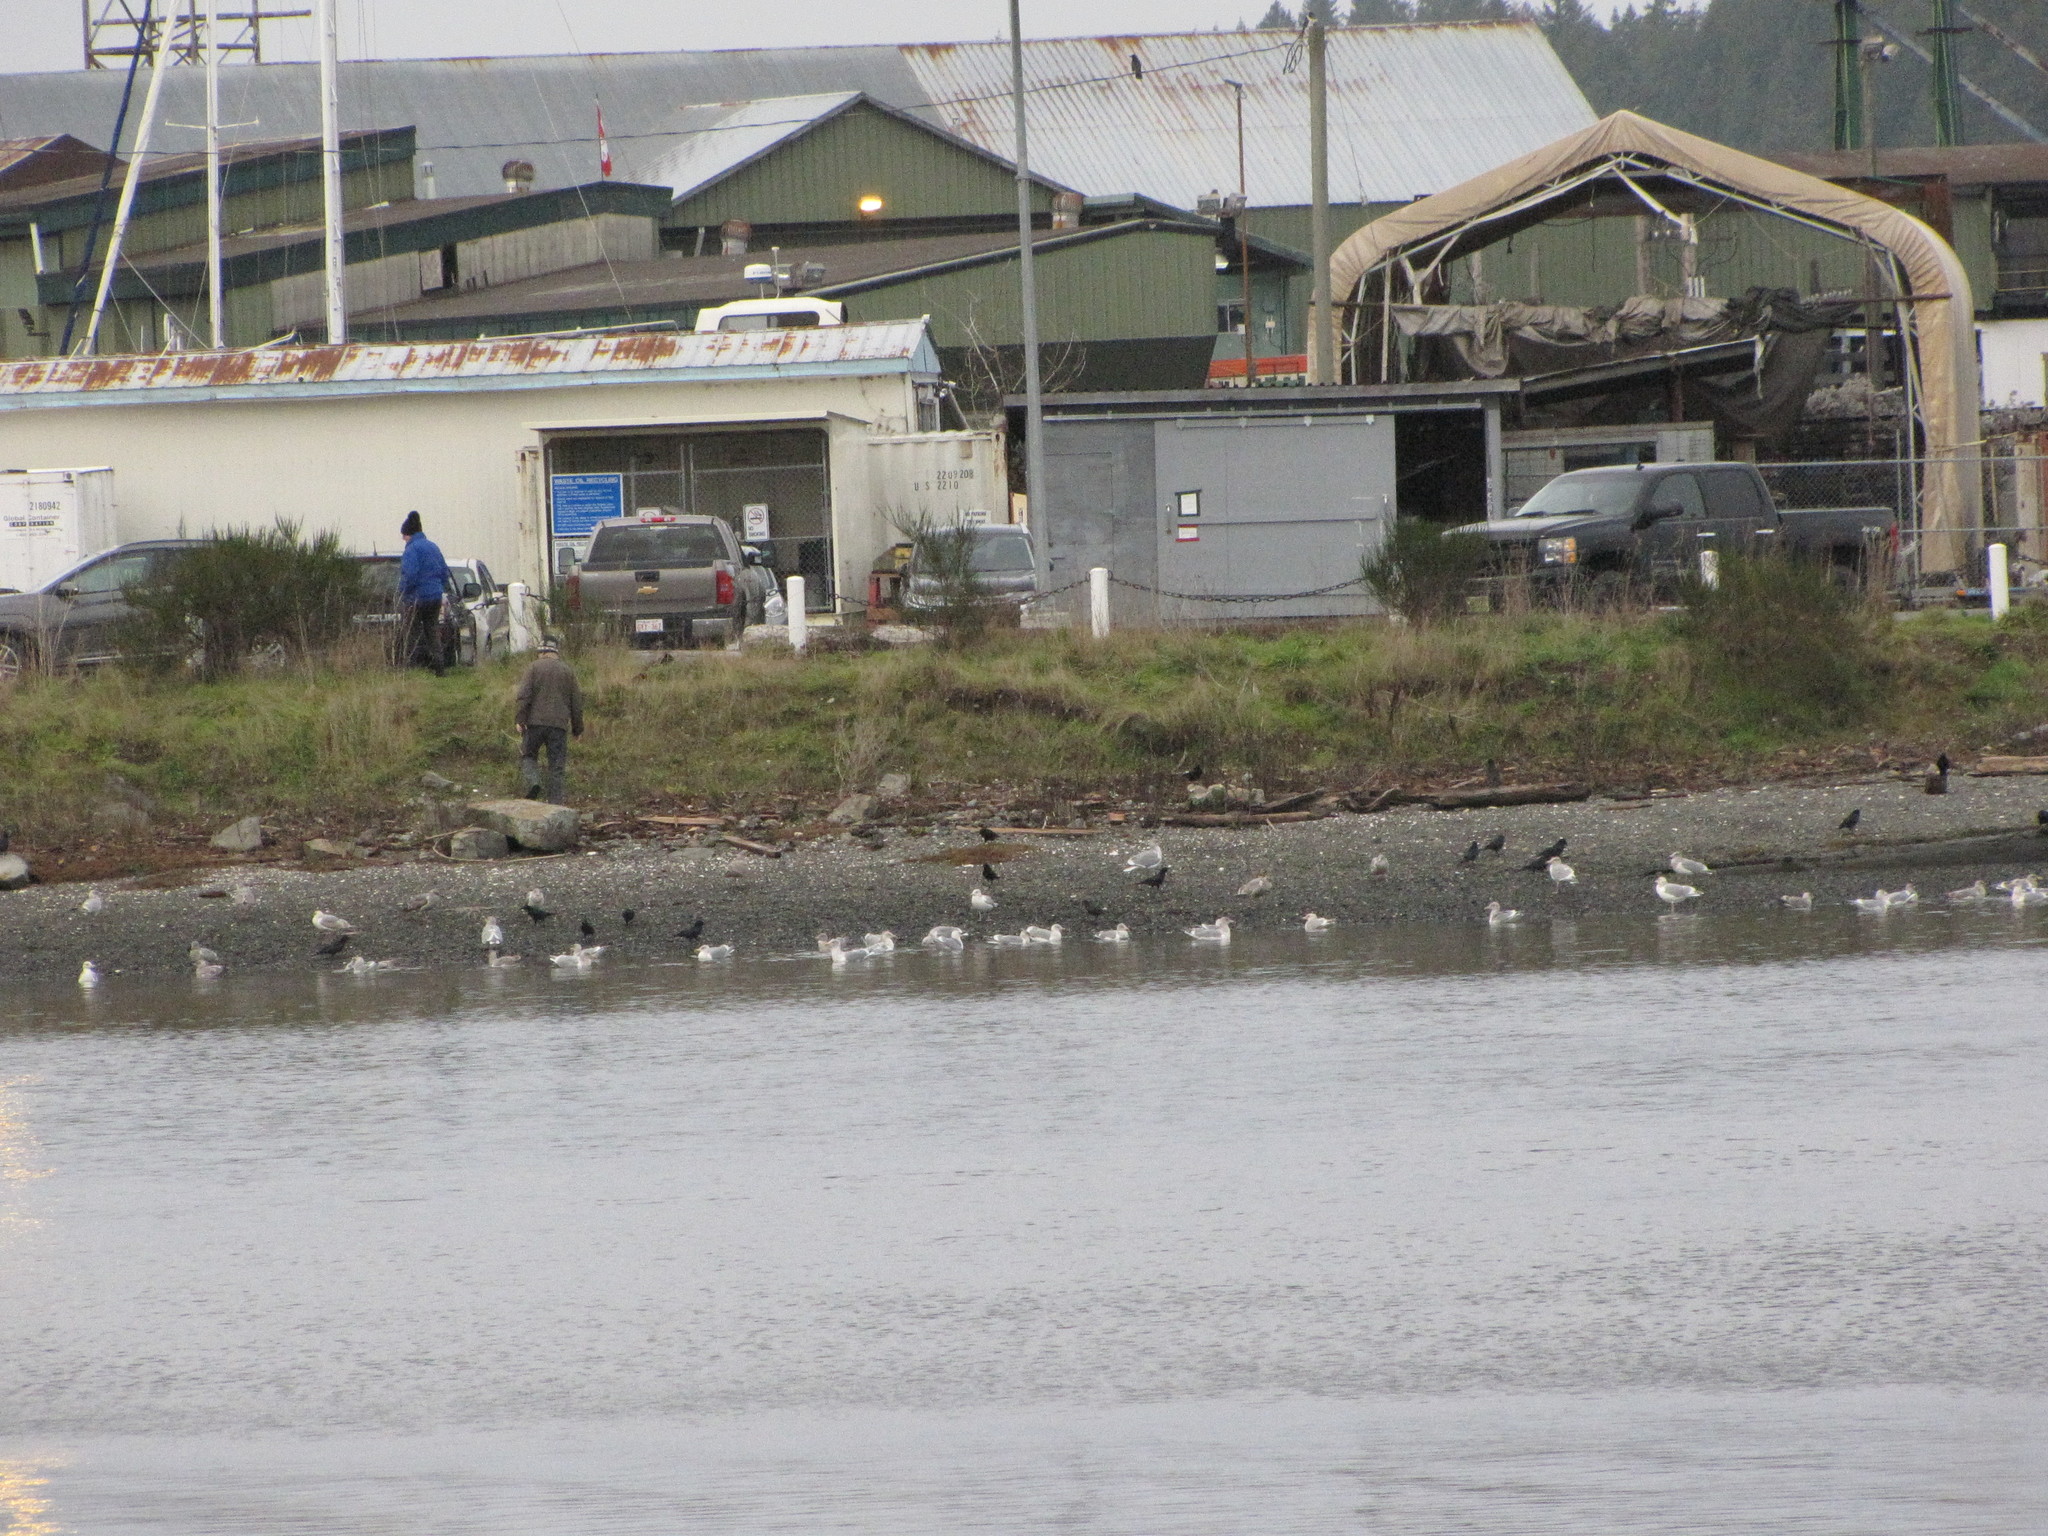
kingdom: Animalia
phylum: Chordata
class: Aves
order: Charadriiformes
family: Laridae
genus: Larus
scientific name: Larus glaucescens
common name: Glaucous-winged gull
